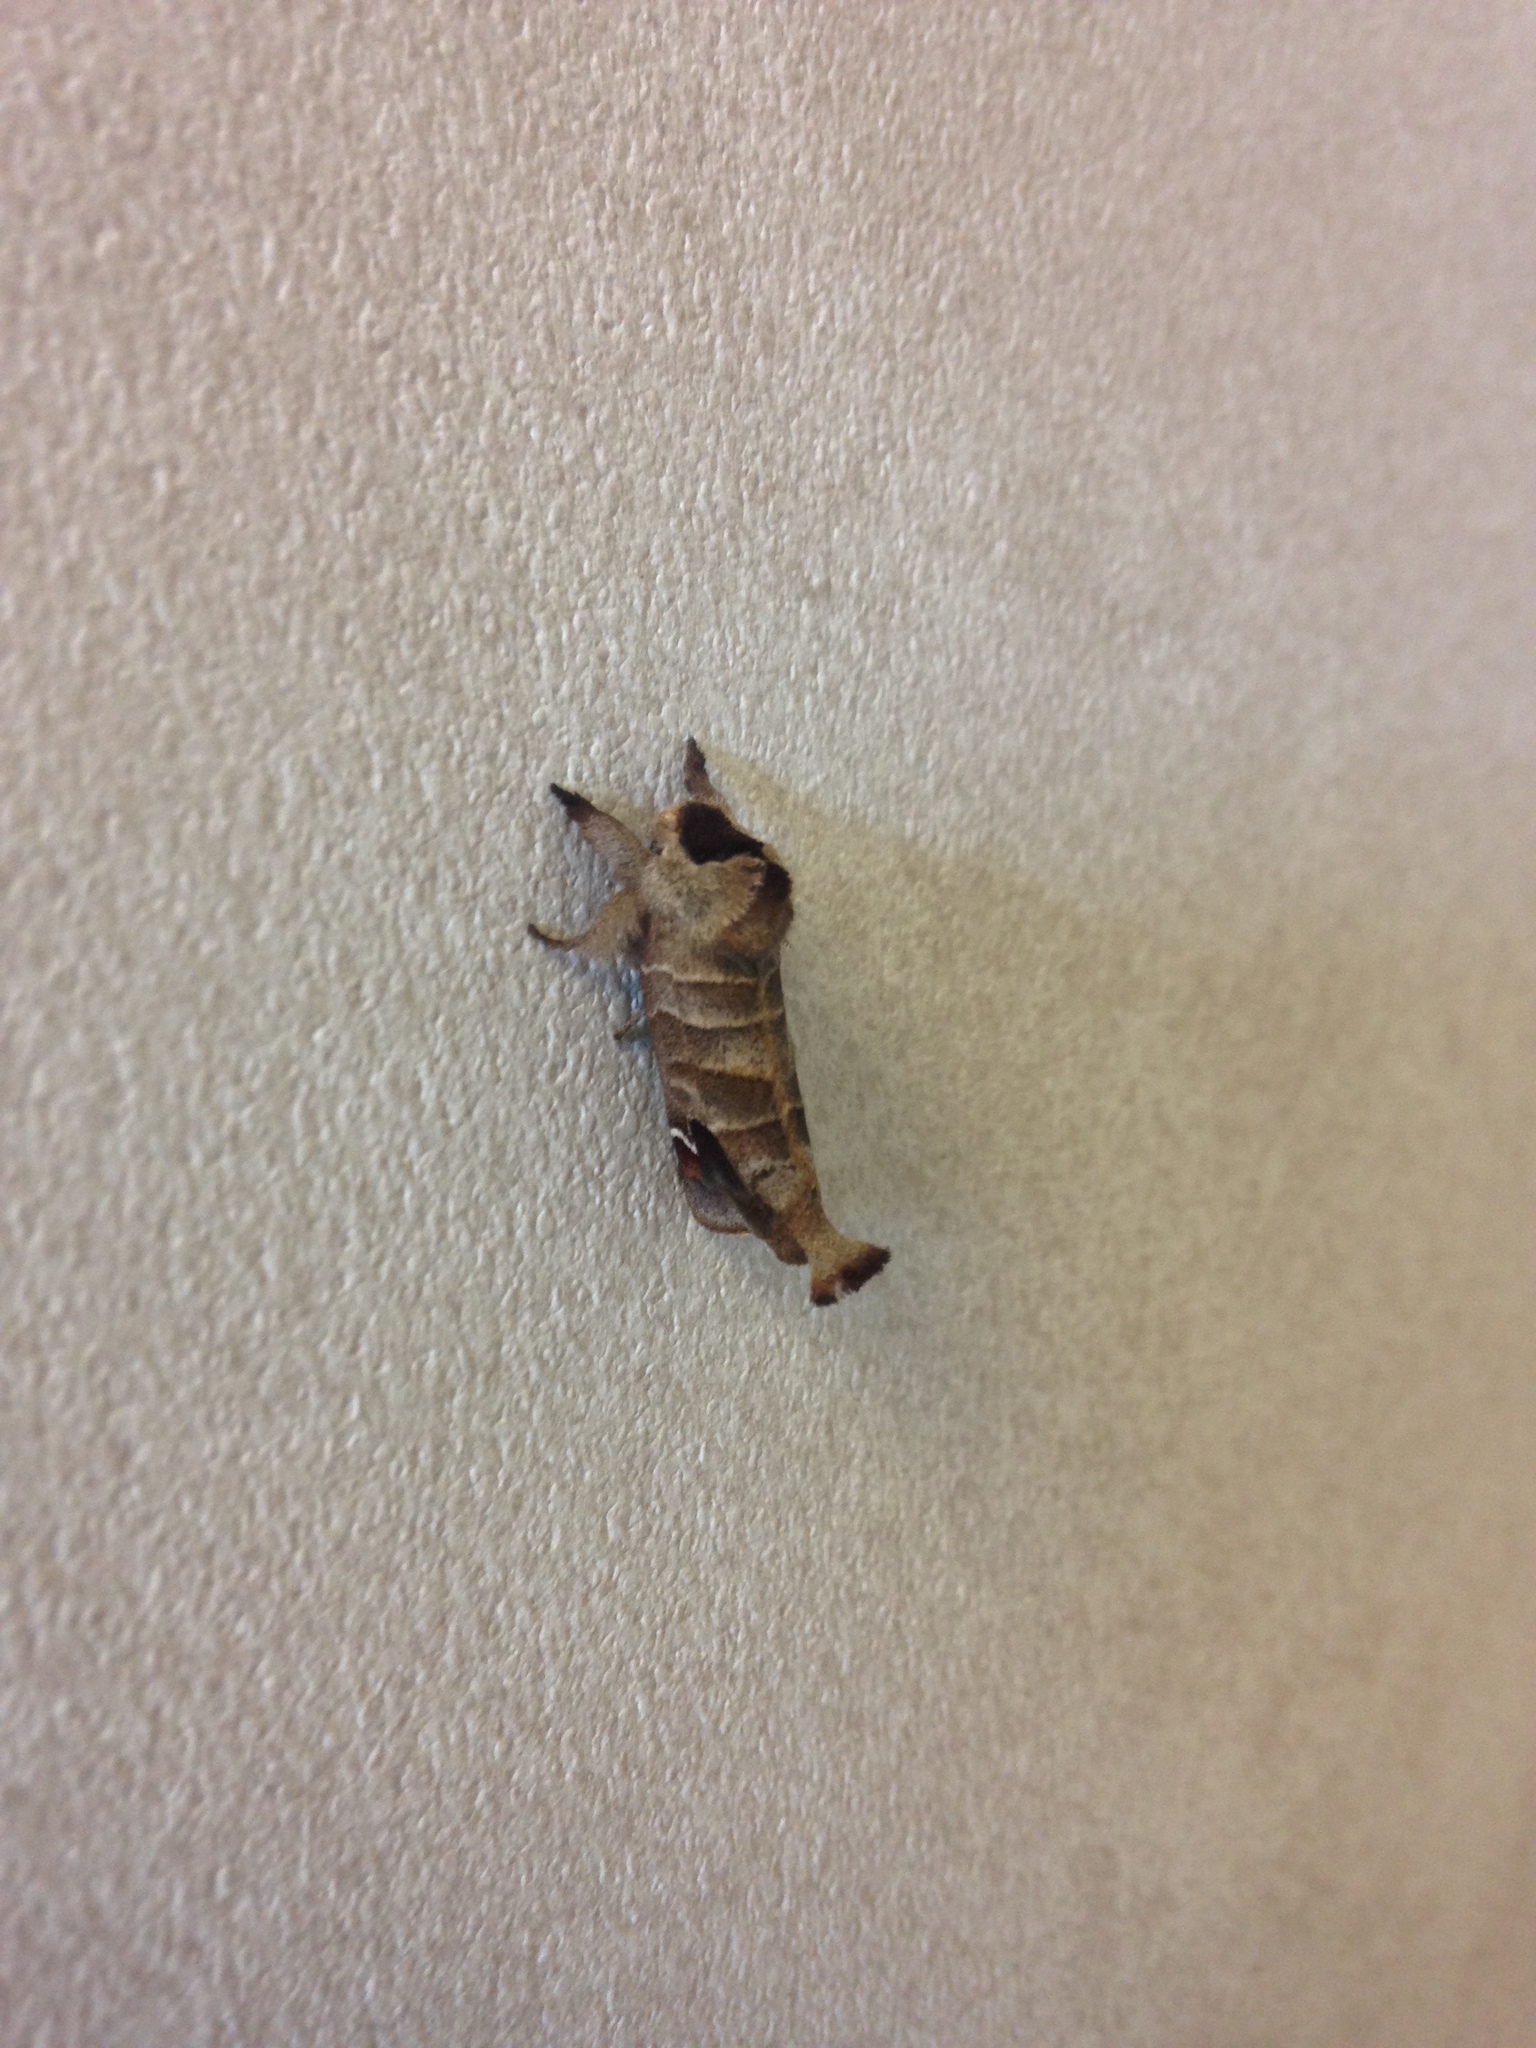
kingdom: Animalia
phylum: Arthropoda
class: Insecta
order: Lepidoptera
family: Notodontidae
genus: Clostera
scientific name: Clostera albosigma
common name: Sigmoid prominent
